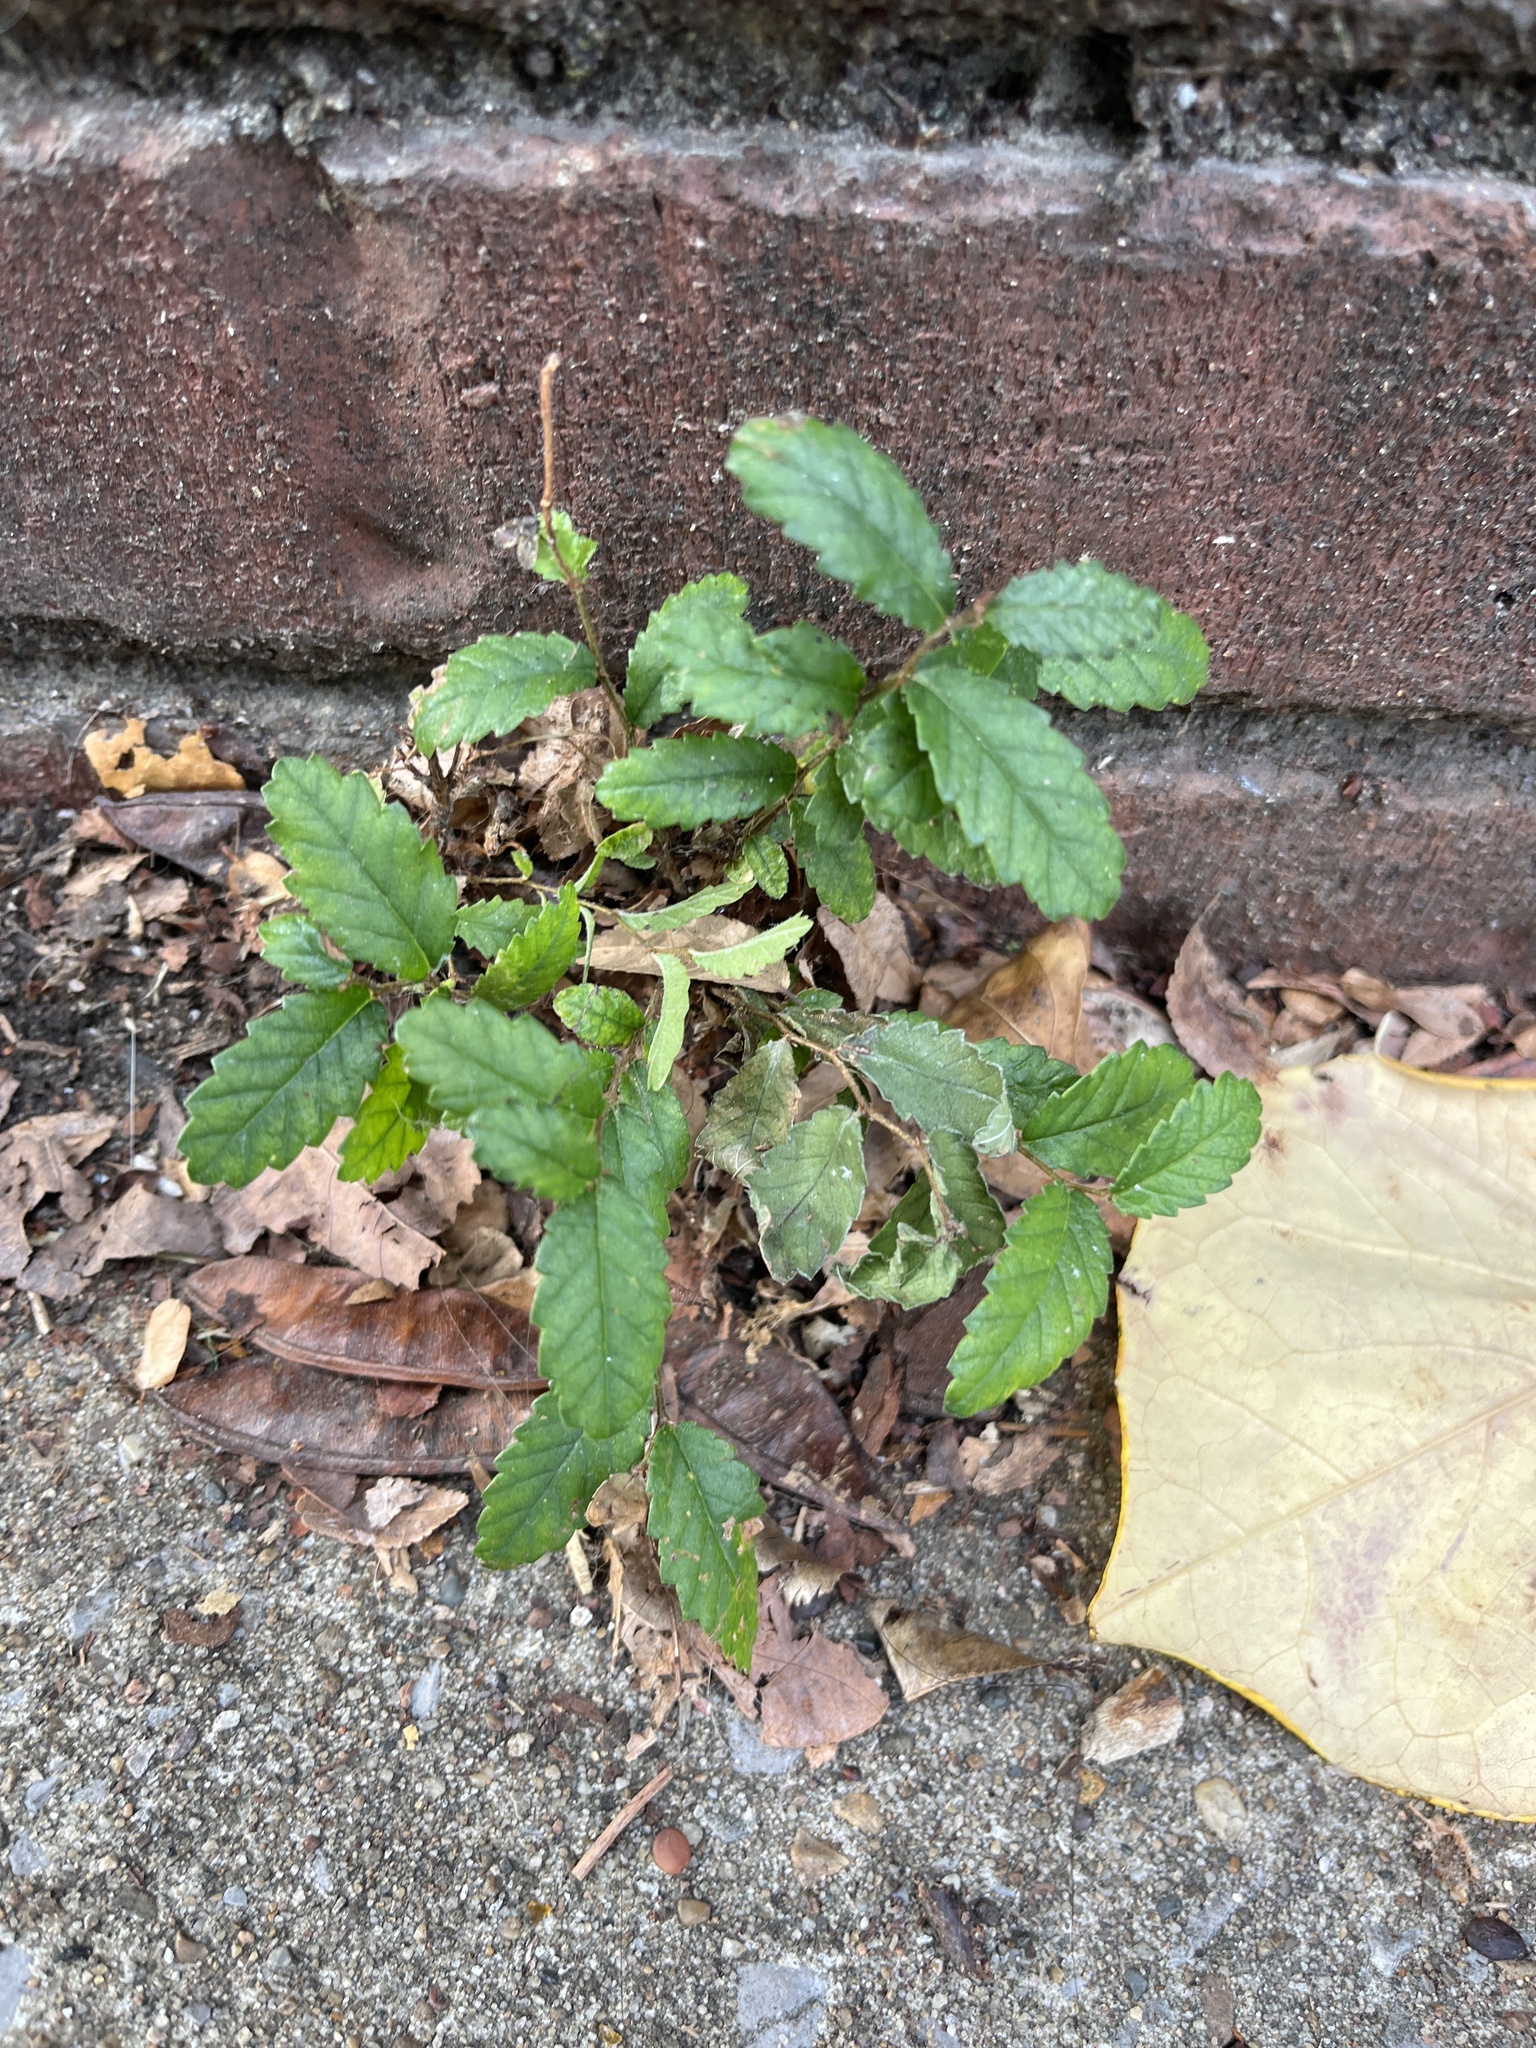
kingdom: Plantae
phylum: Tracheophyta
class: Magnoliopsida
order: Rosales
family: Ulmaceae
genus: Ulmus
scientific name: Ulmus parvifolia
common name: Chinese elm
